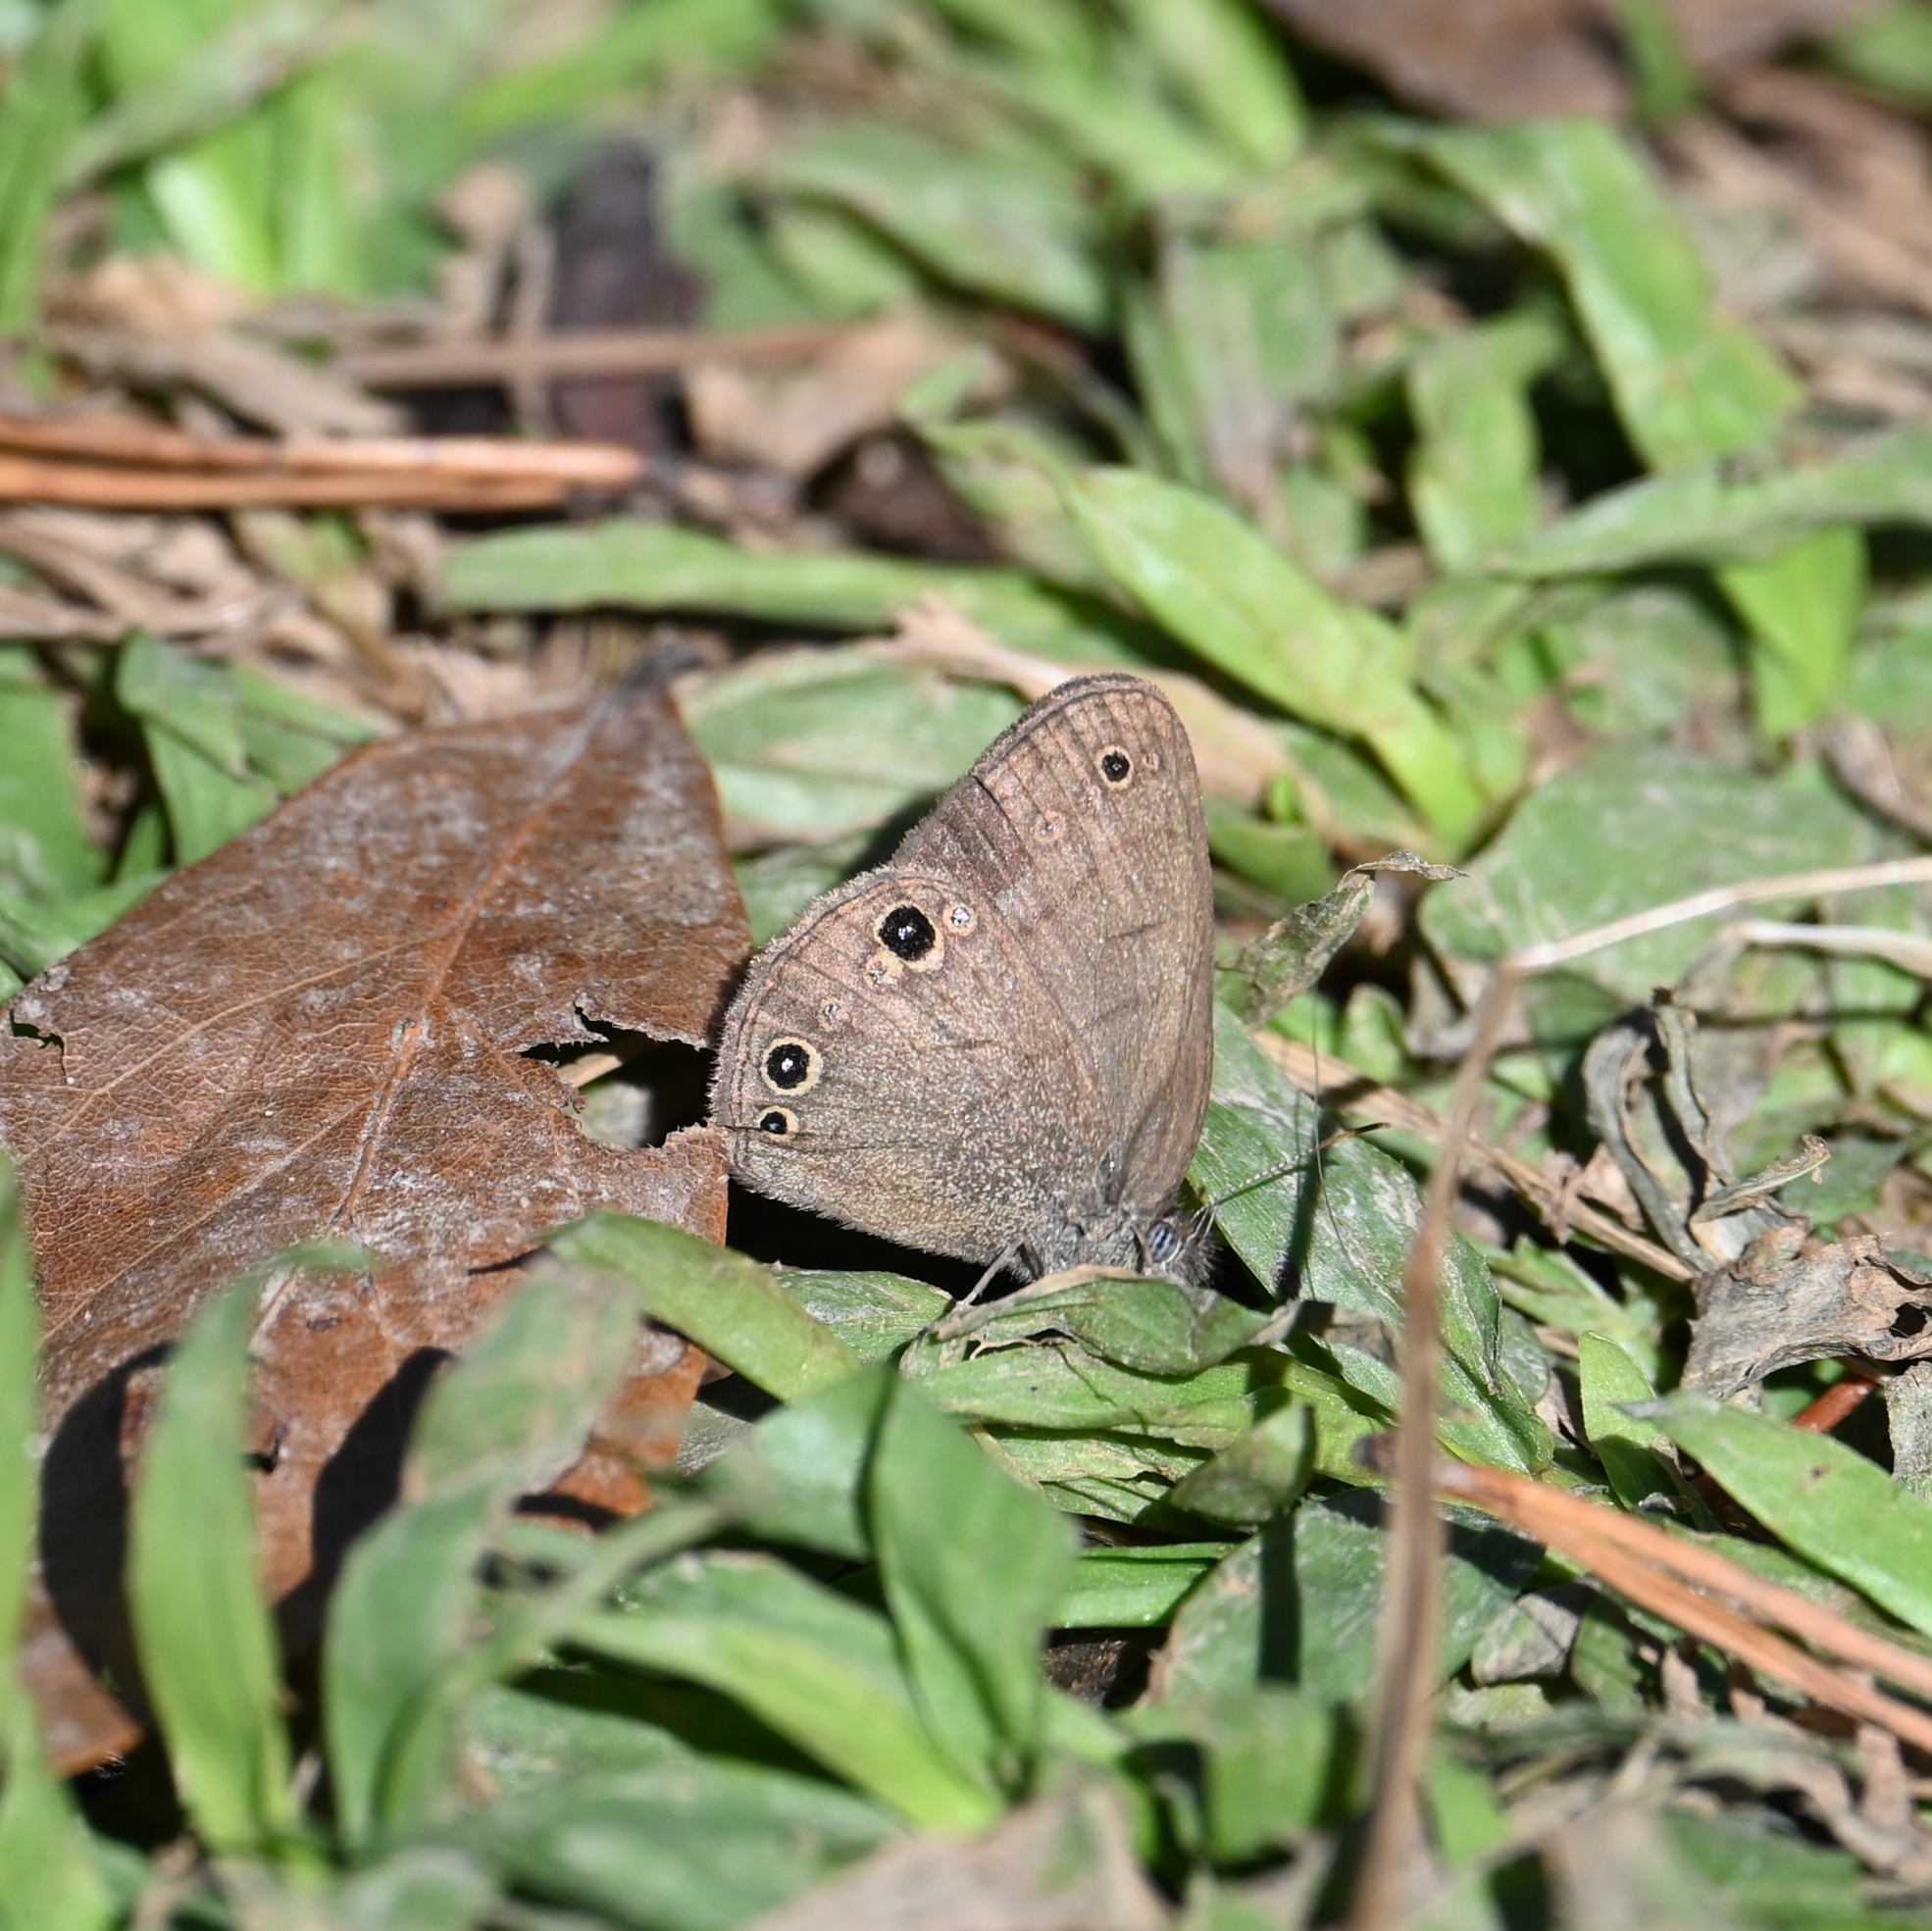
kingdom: Animalia
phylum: Arthropoda
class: Insecta
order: Lepidoptera
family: Nymphalidae
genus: Hermeuptychia
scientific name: Hermeuptychia hermes
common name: Hermes satyr
